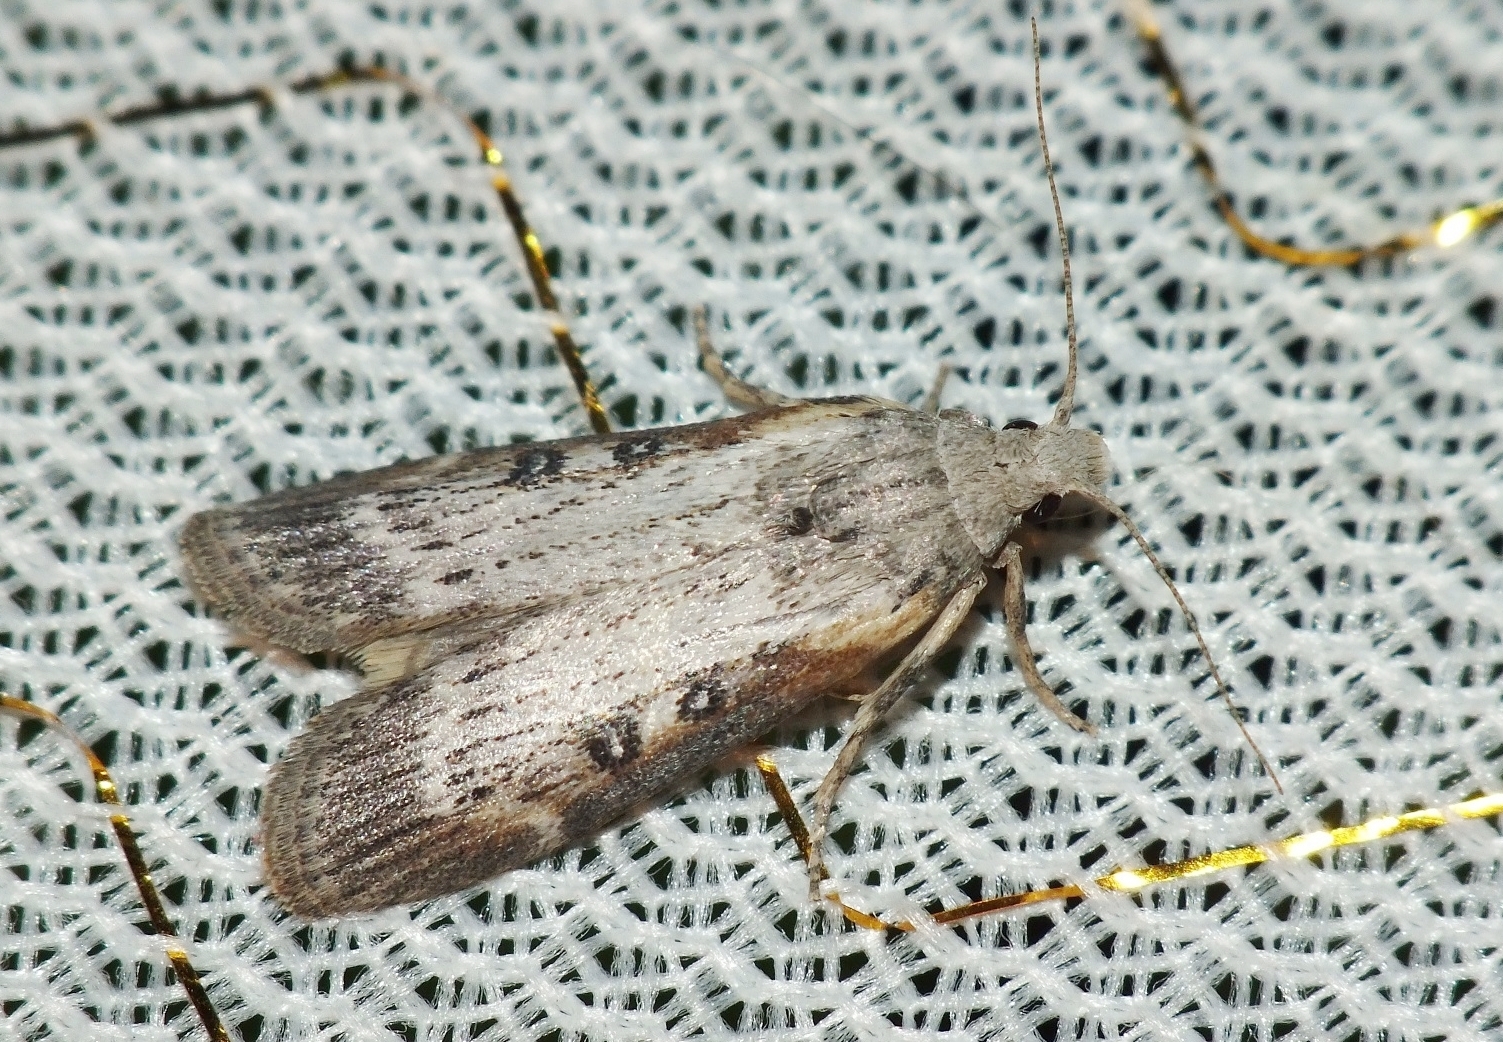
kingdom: Animalia
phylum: Arthropoda
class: Insecta
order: Lepidoptera
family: Pyralidae
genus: Lamoria
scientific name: Lamoria anella
